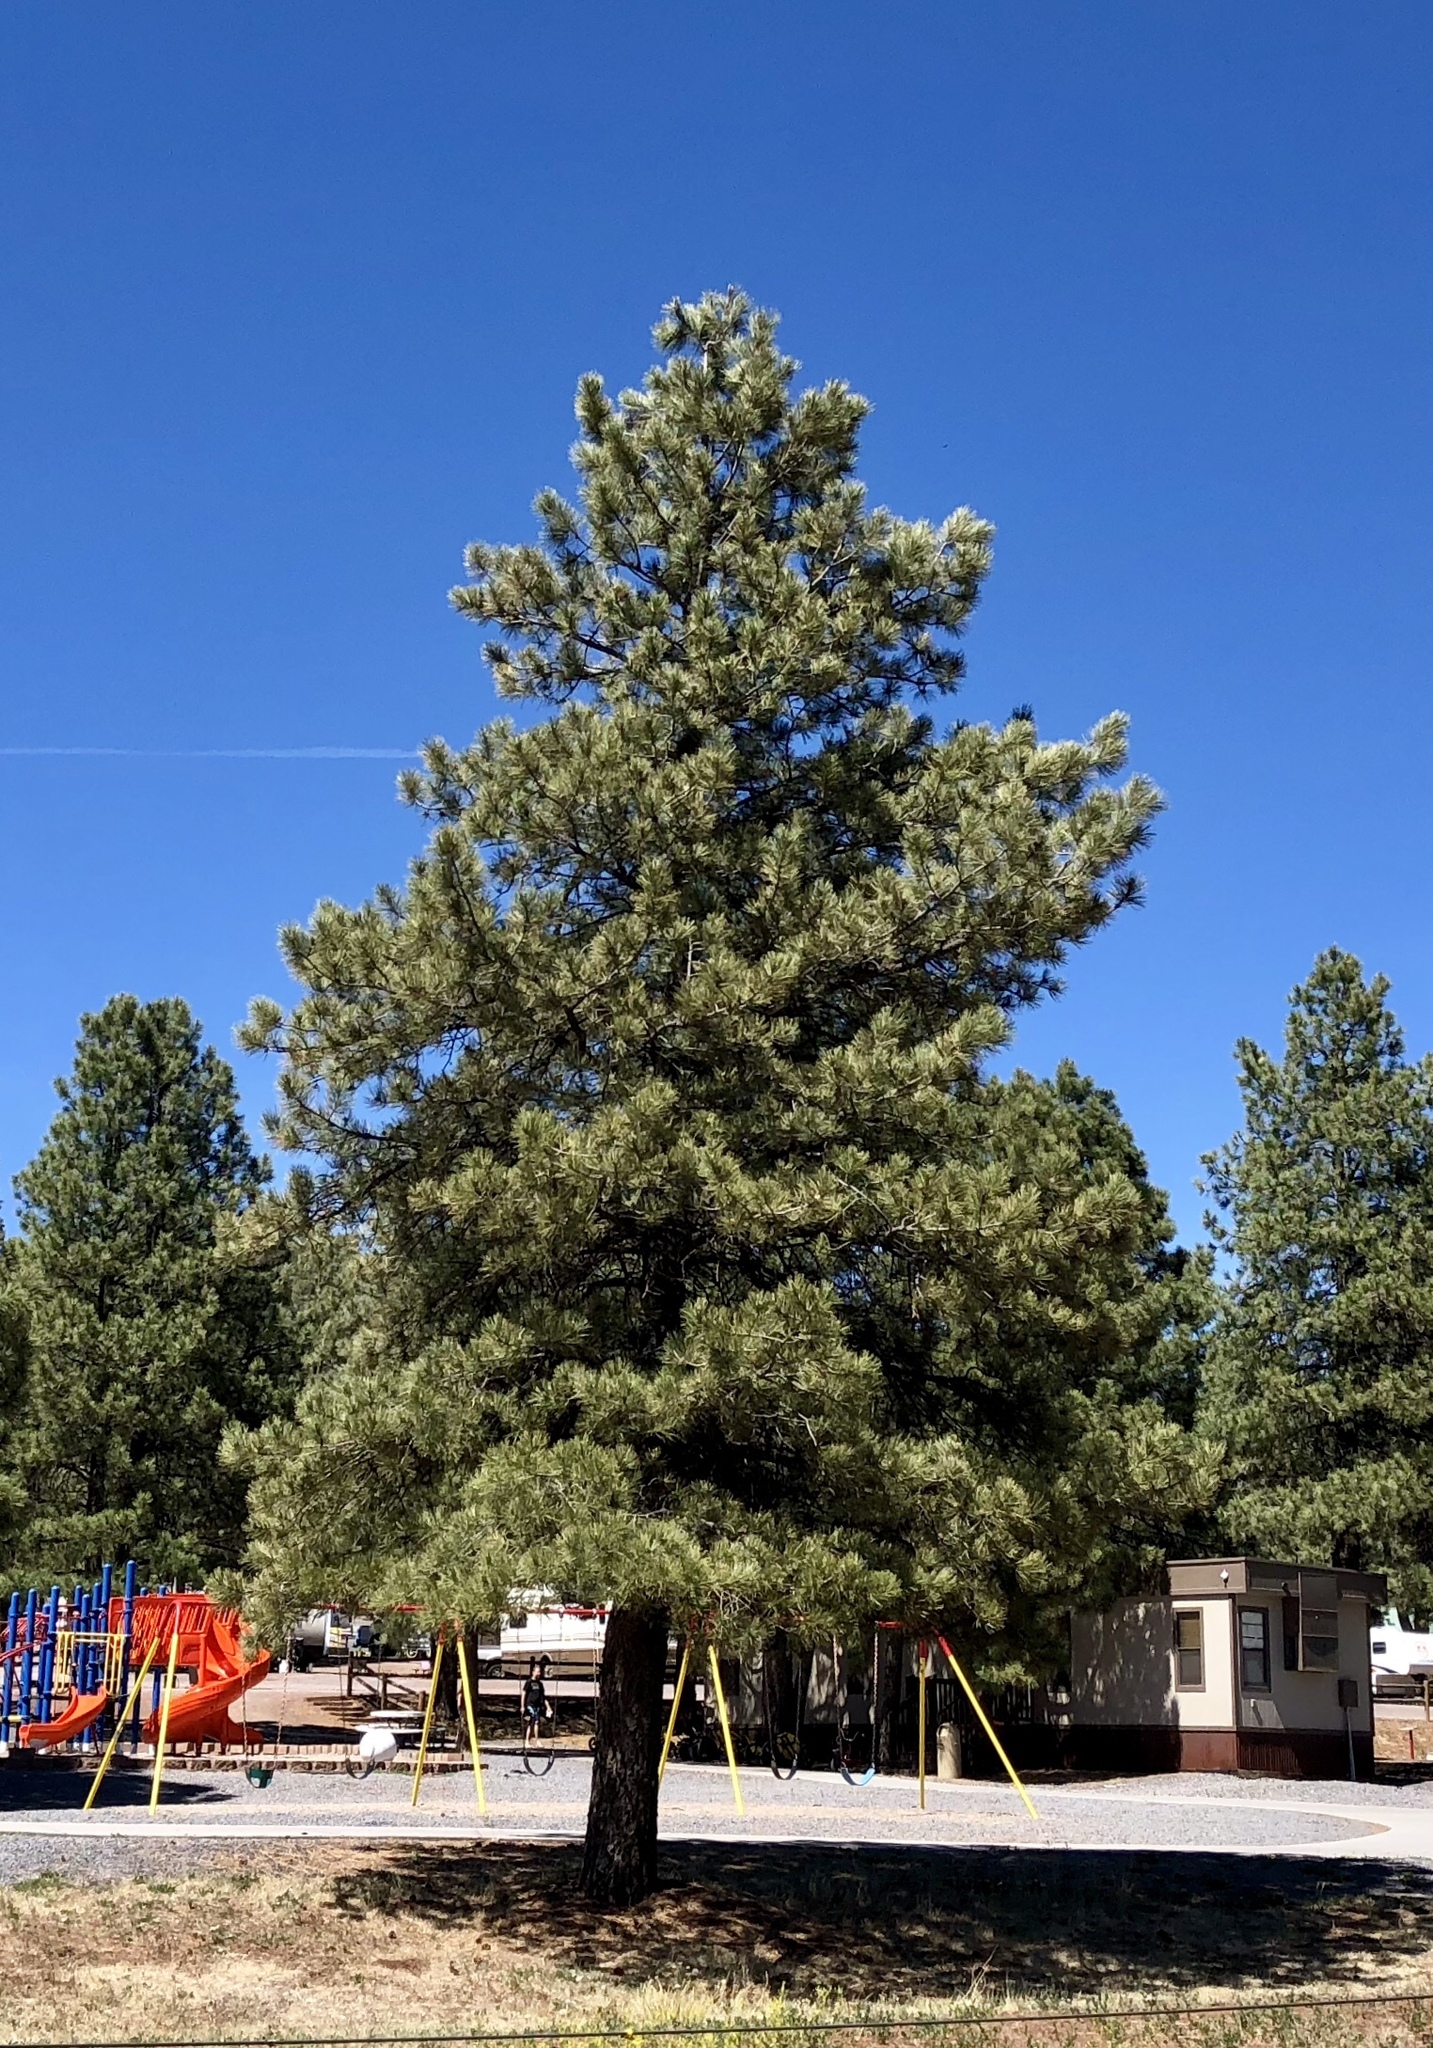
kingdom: Plantae
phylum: Tracheophyta
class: Pinopsida
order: Pinales
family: Pinaceae
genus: Pinus
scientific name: Pinus ponderosa
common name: Western yellow-pine
